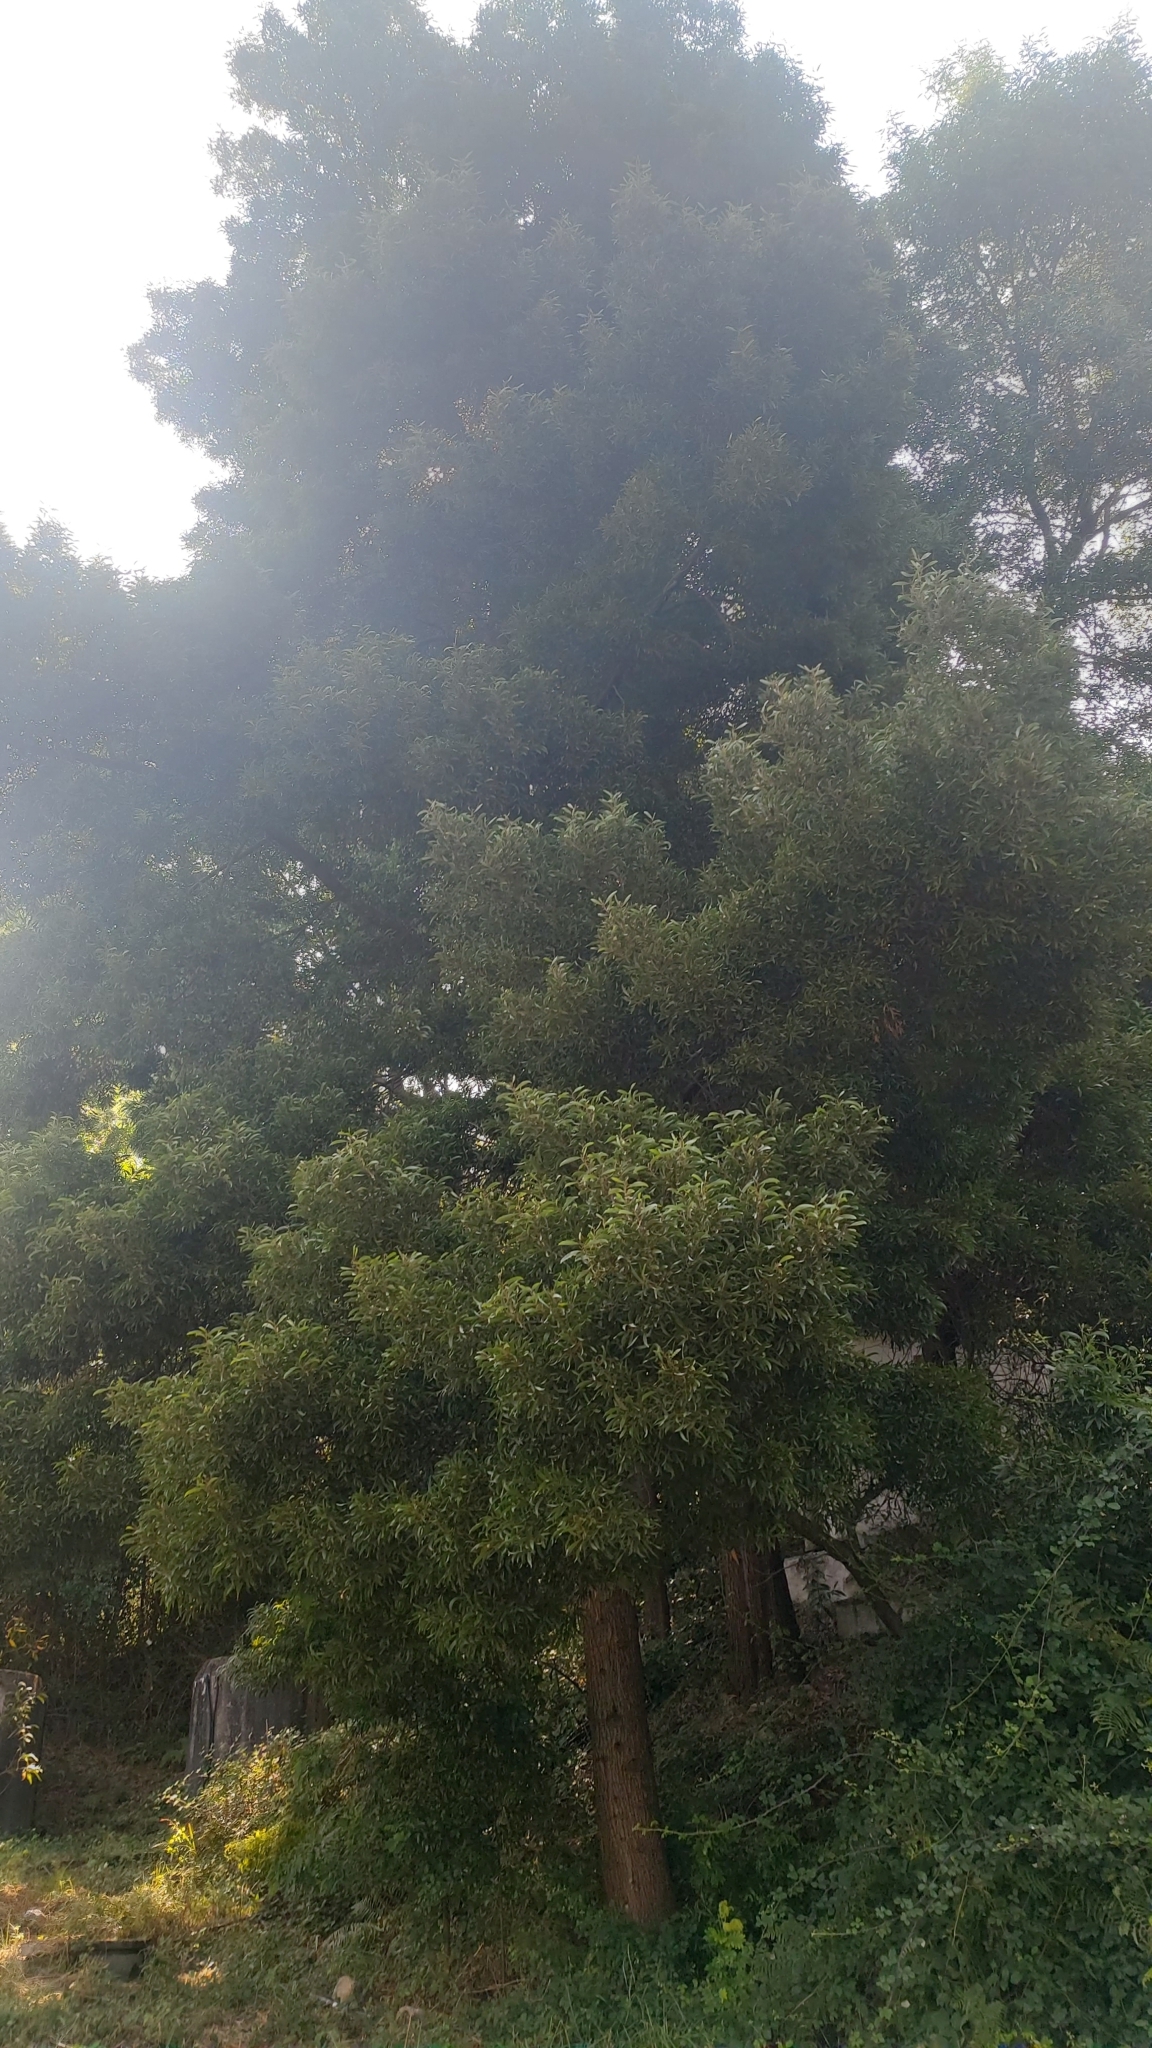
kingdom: Plantae
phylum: Tracheophyta
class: Magnoliopsida
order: Fabales
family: Fabaceae
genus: Acacia
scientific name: Acacia melanoxylon
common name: Blackwood
